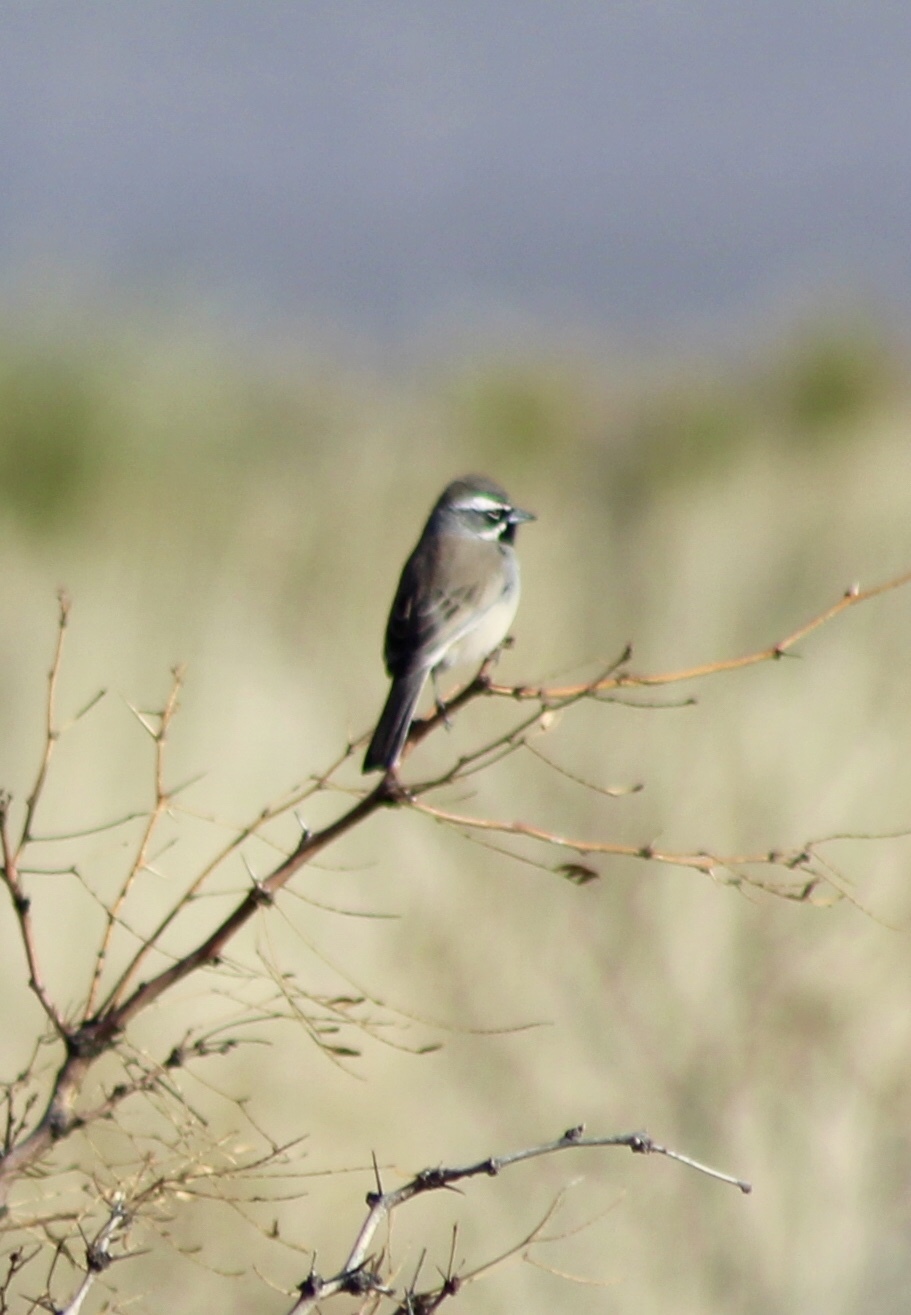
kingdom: Animalia
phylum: Chordata
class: Aves
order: Passeriformes
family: Passerellidae
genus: Amphispiza
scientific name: Amphispiza bilineata
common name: Black-throated sparrow
